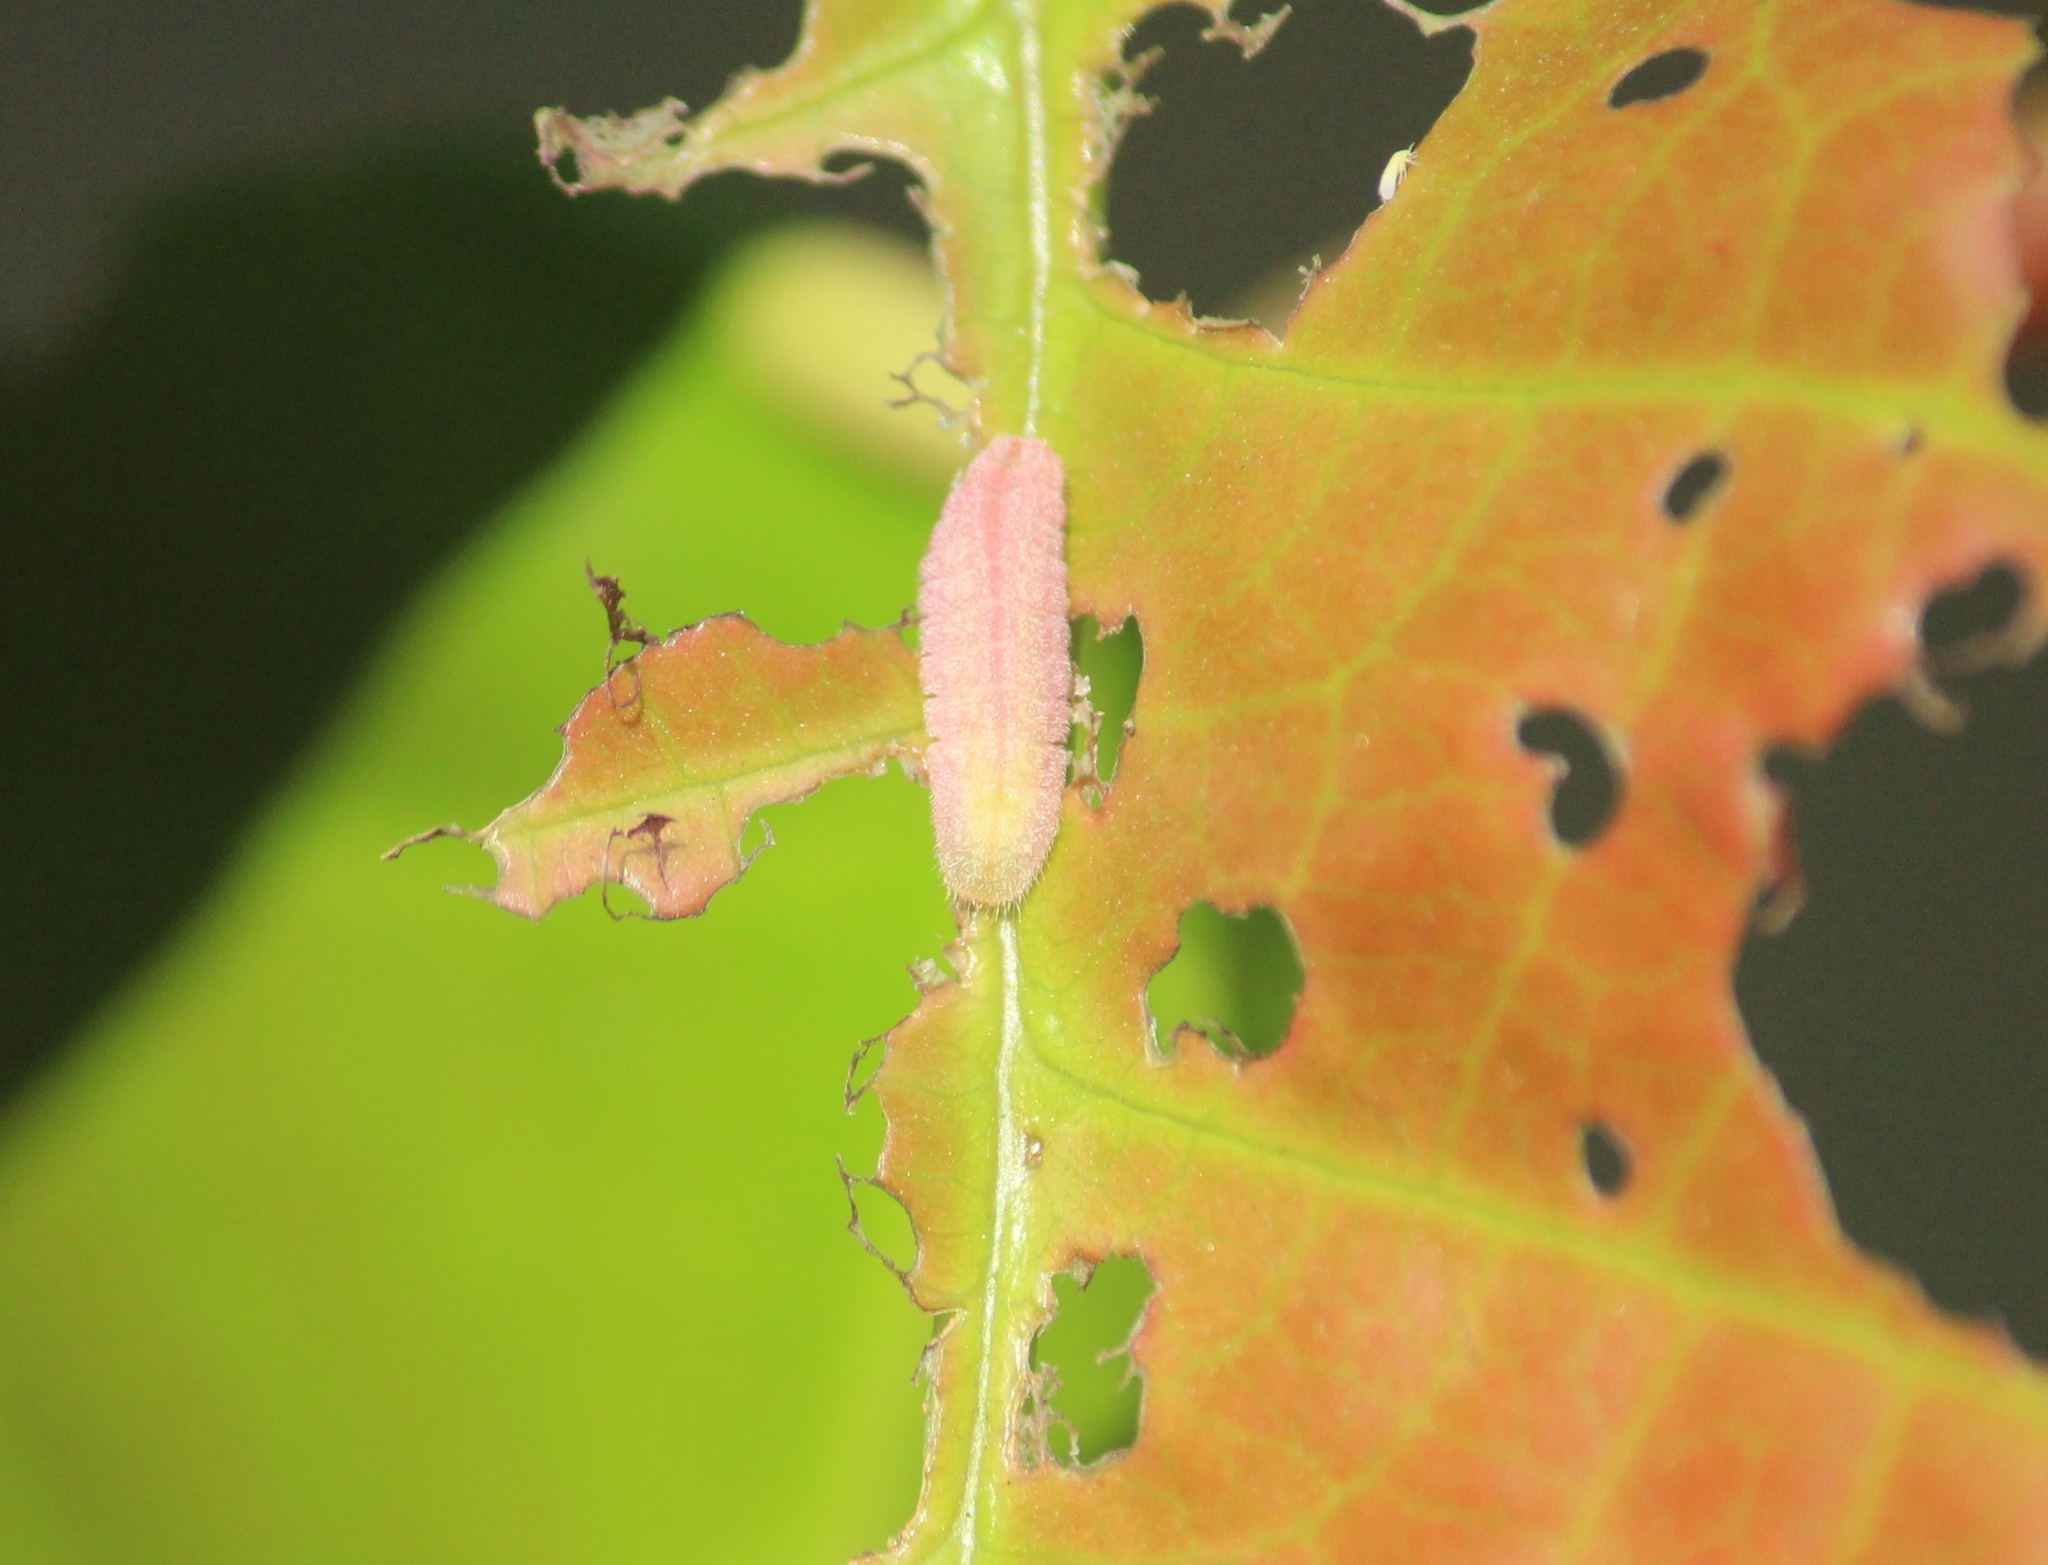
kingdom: Animalia
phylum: Arthropoda
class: Insecta
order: Lepidoptera
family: Lycaenidae
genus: Acytolepis
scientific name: Acytolepis puspa
